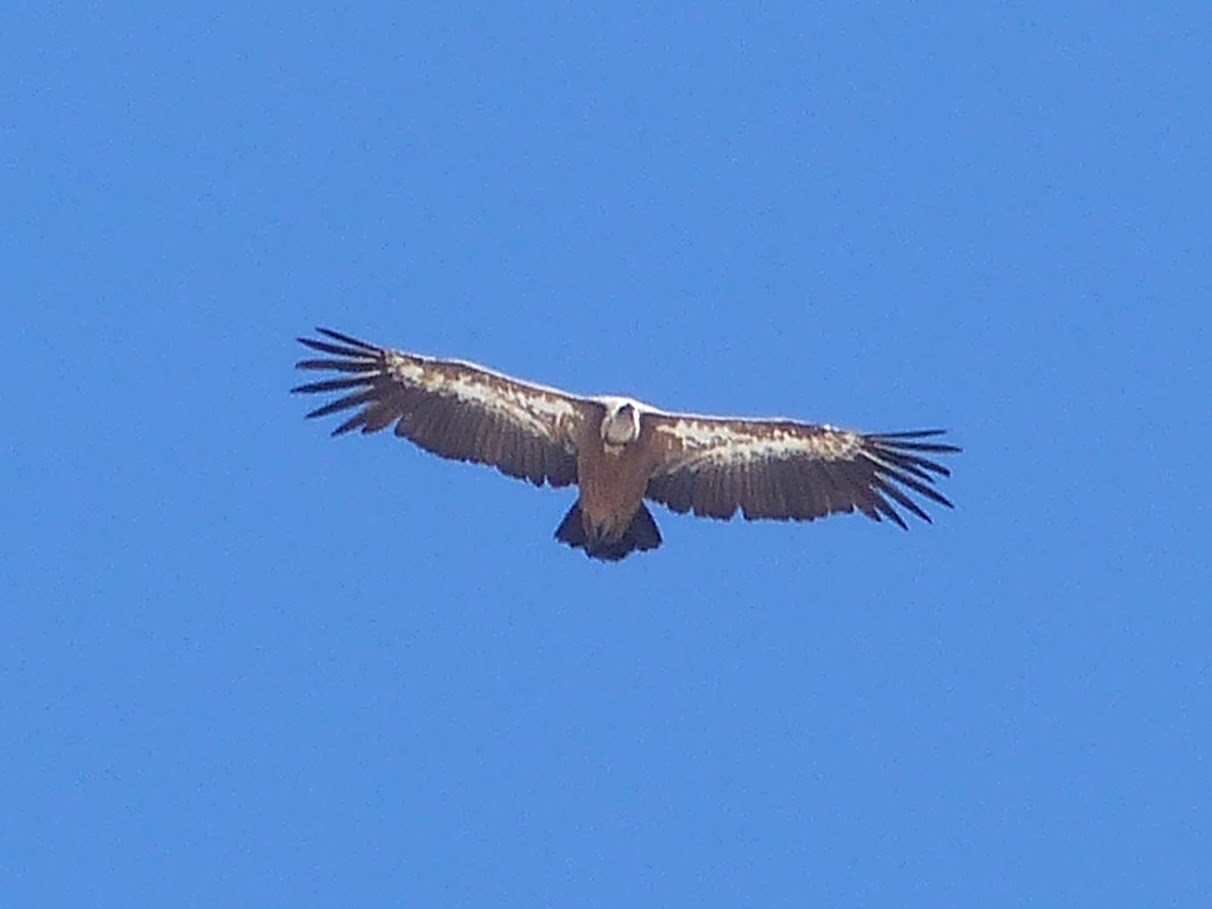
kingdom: Animalia
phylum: Chordata
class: Aves
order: Accipitriformes
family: Accipitridae
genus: Gyps
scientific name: Gyps fulvus
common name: Griffon vulture
